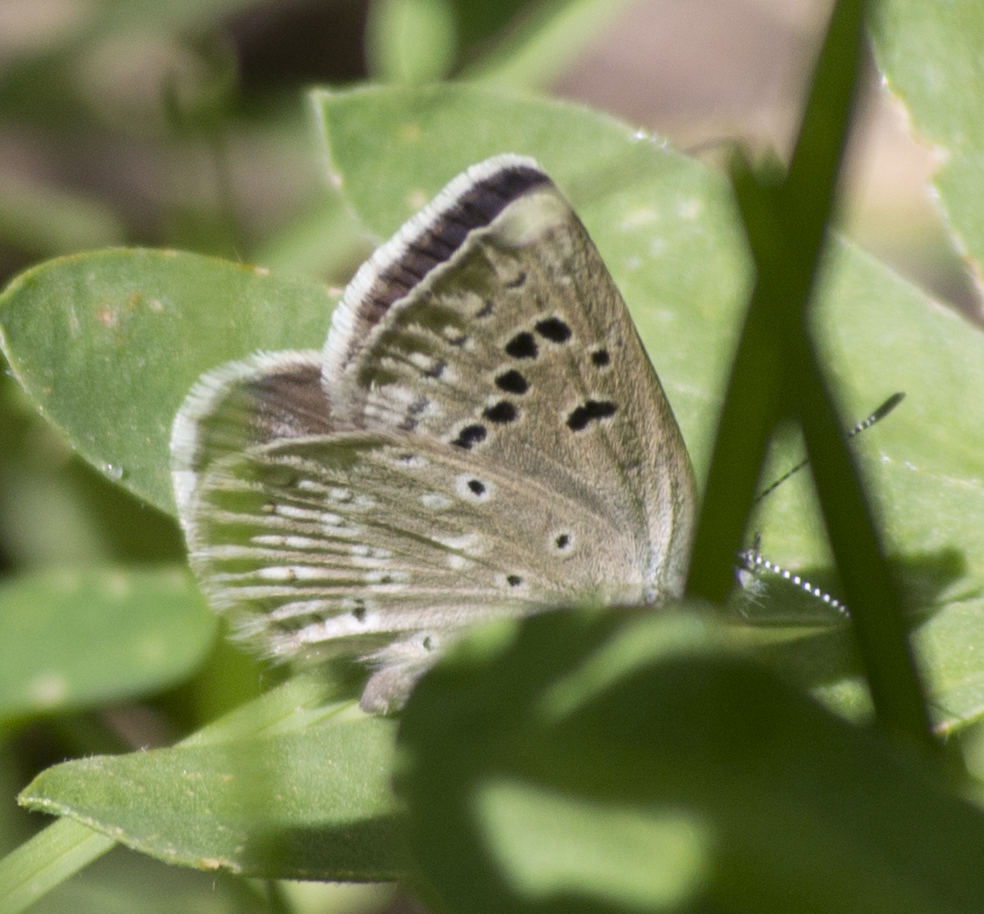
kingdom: Animalia
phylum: Arthropoda
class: Insecta
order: Lepidoptera
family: Lycaenidae
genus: Icaricia
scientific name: Icaricia icarioides
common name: Boisduval's blue
